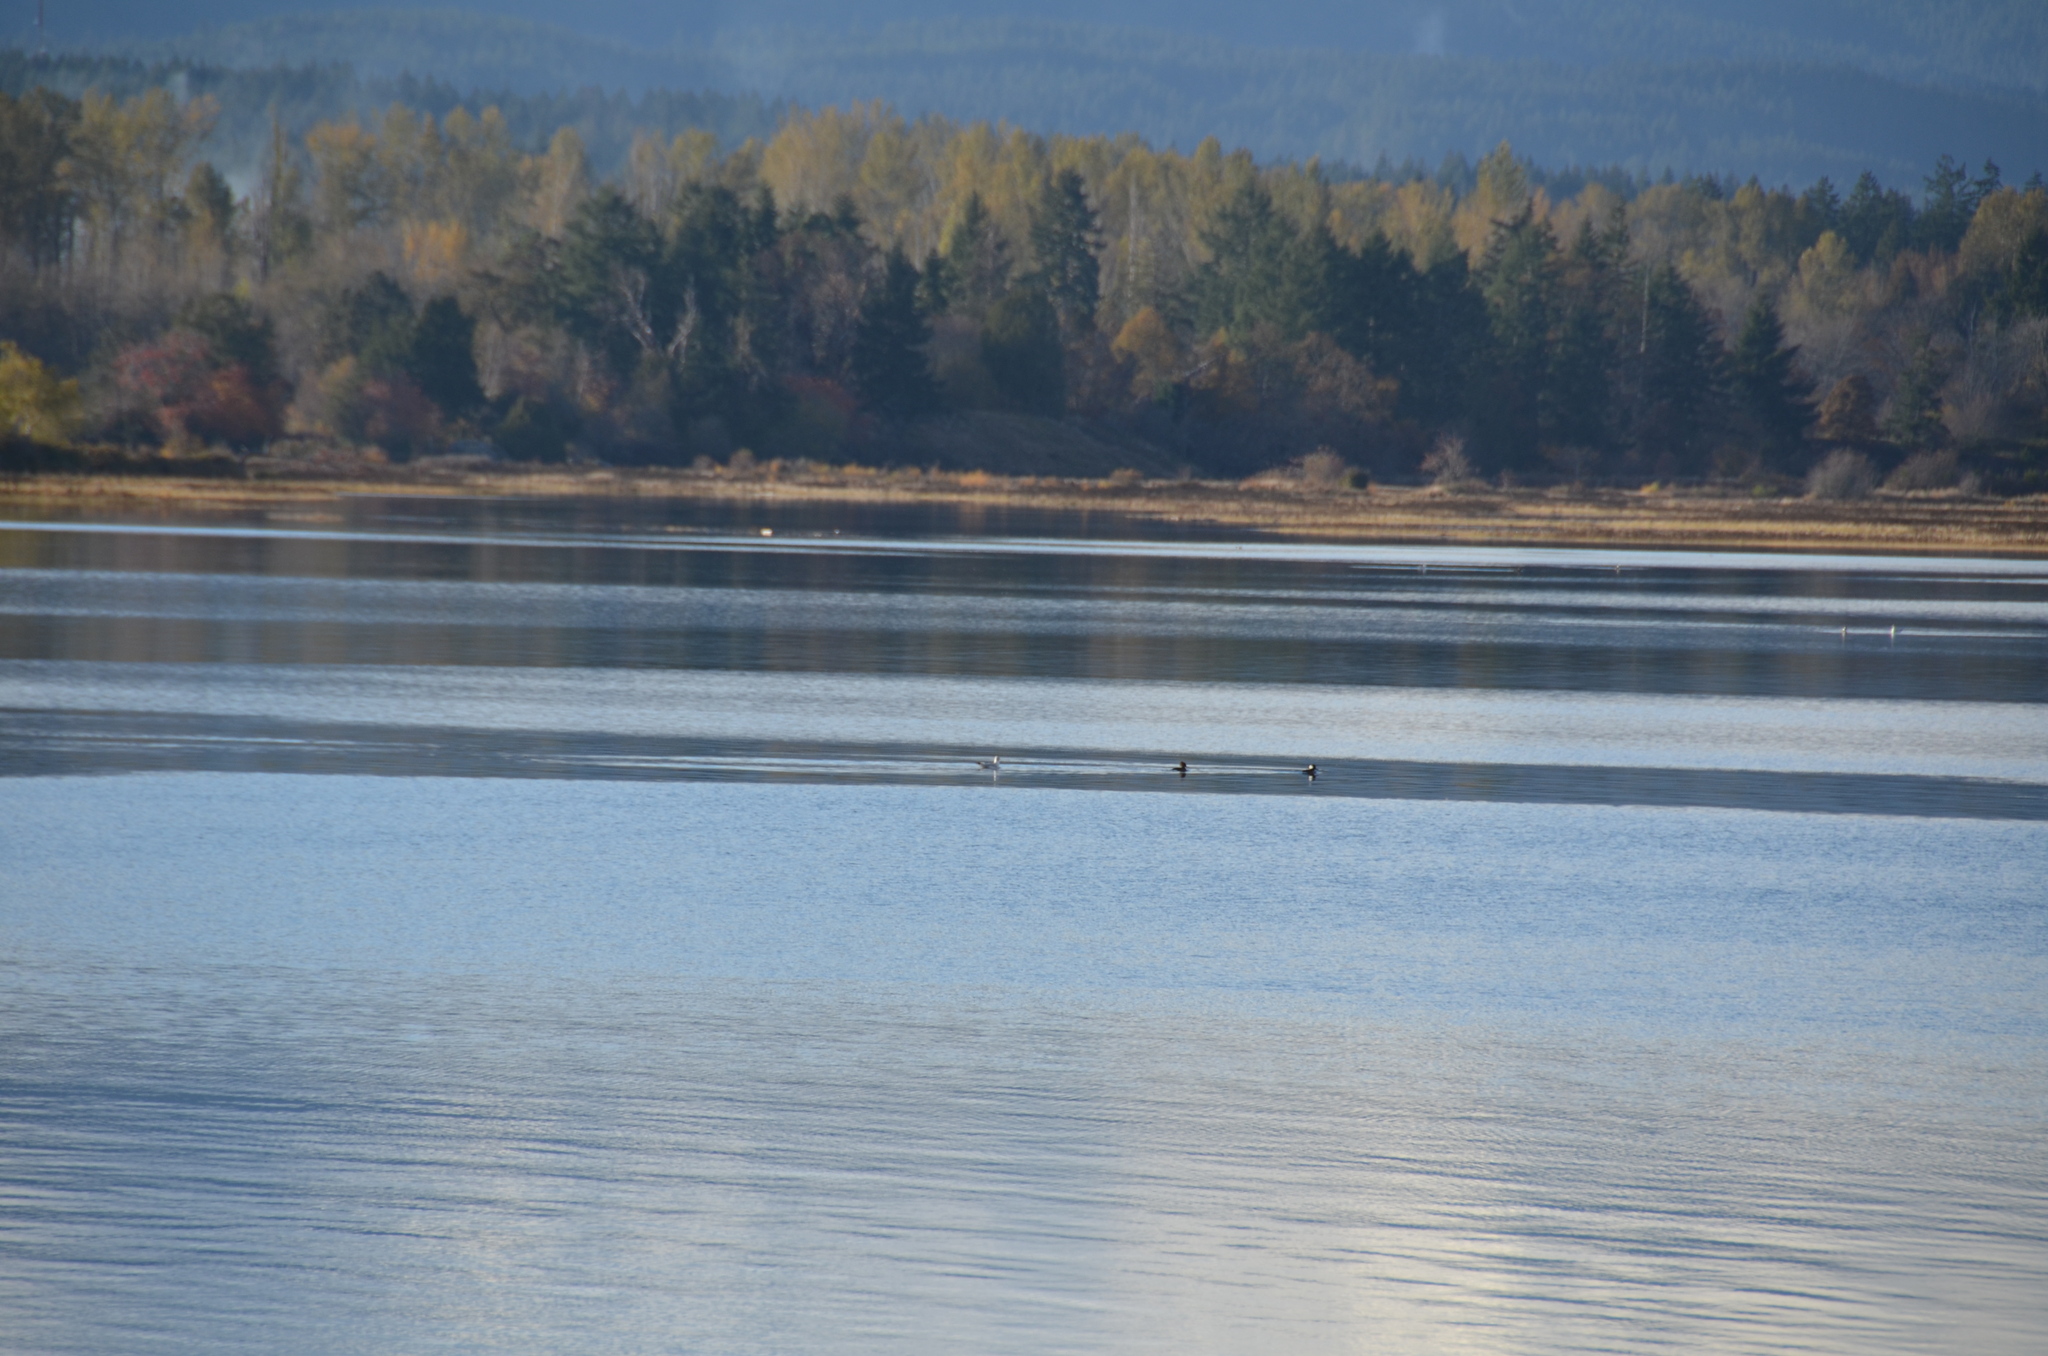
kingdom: Animalia
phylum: Chordata
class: Aves
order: Anseriformes
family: Anatidae
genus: Lophodytes
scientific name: Lophodytes cucullatus
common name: Hooded merganser
